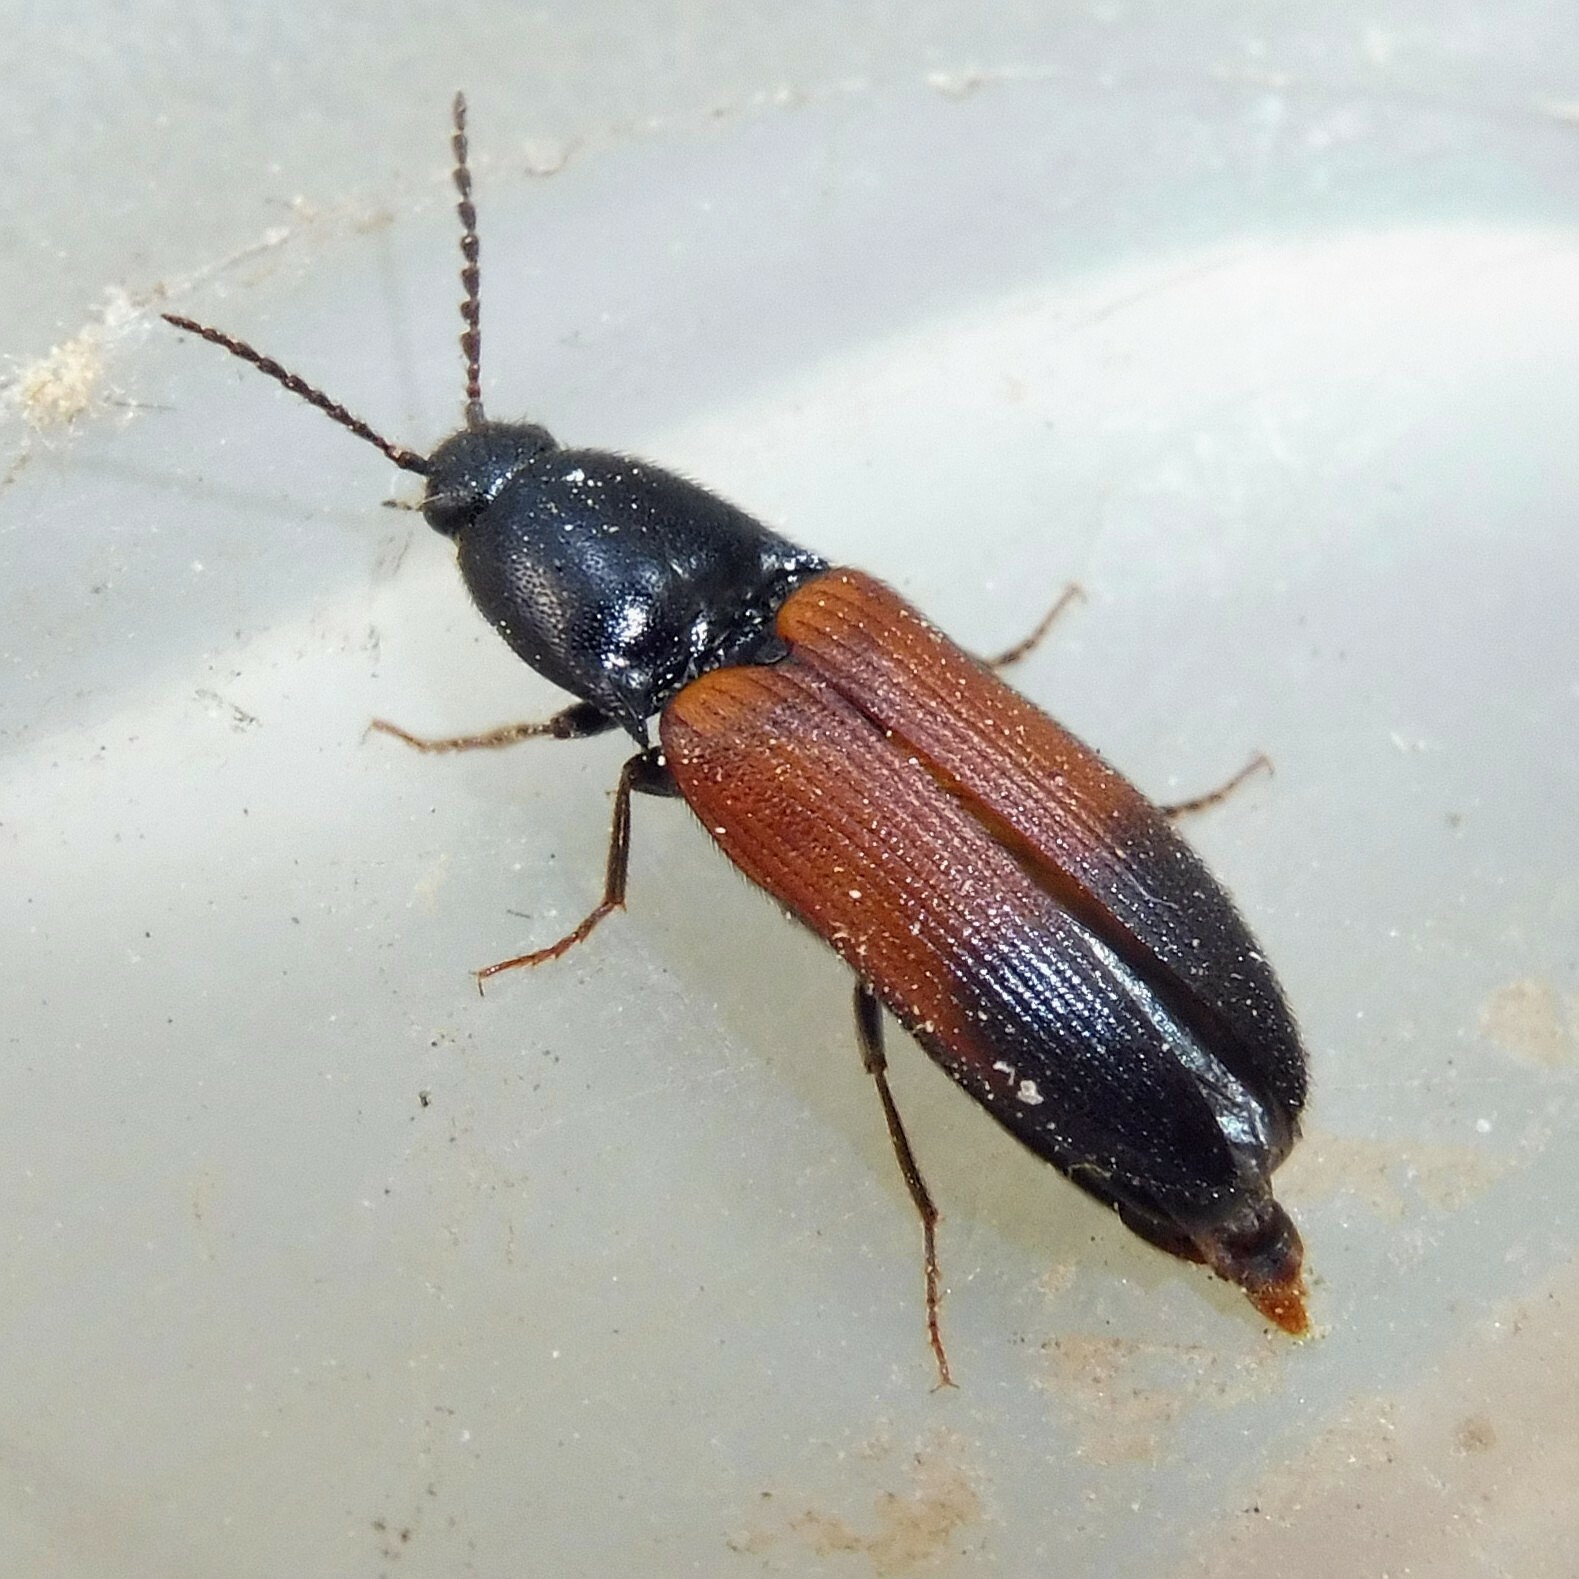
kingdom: Animalia
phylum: Arthropoda
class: Insecta
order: Coleoptera
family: Elateridae
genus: Ampedus
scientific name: Ampedus balteatus
